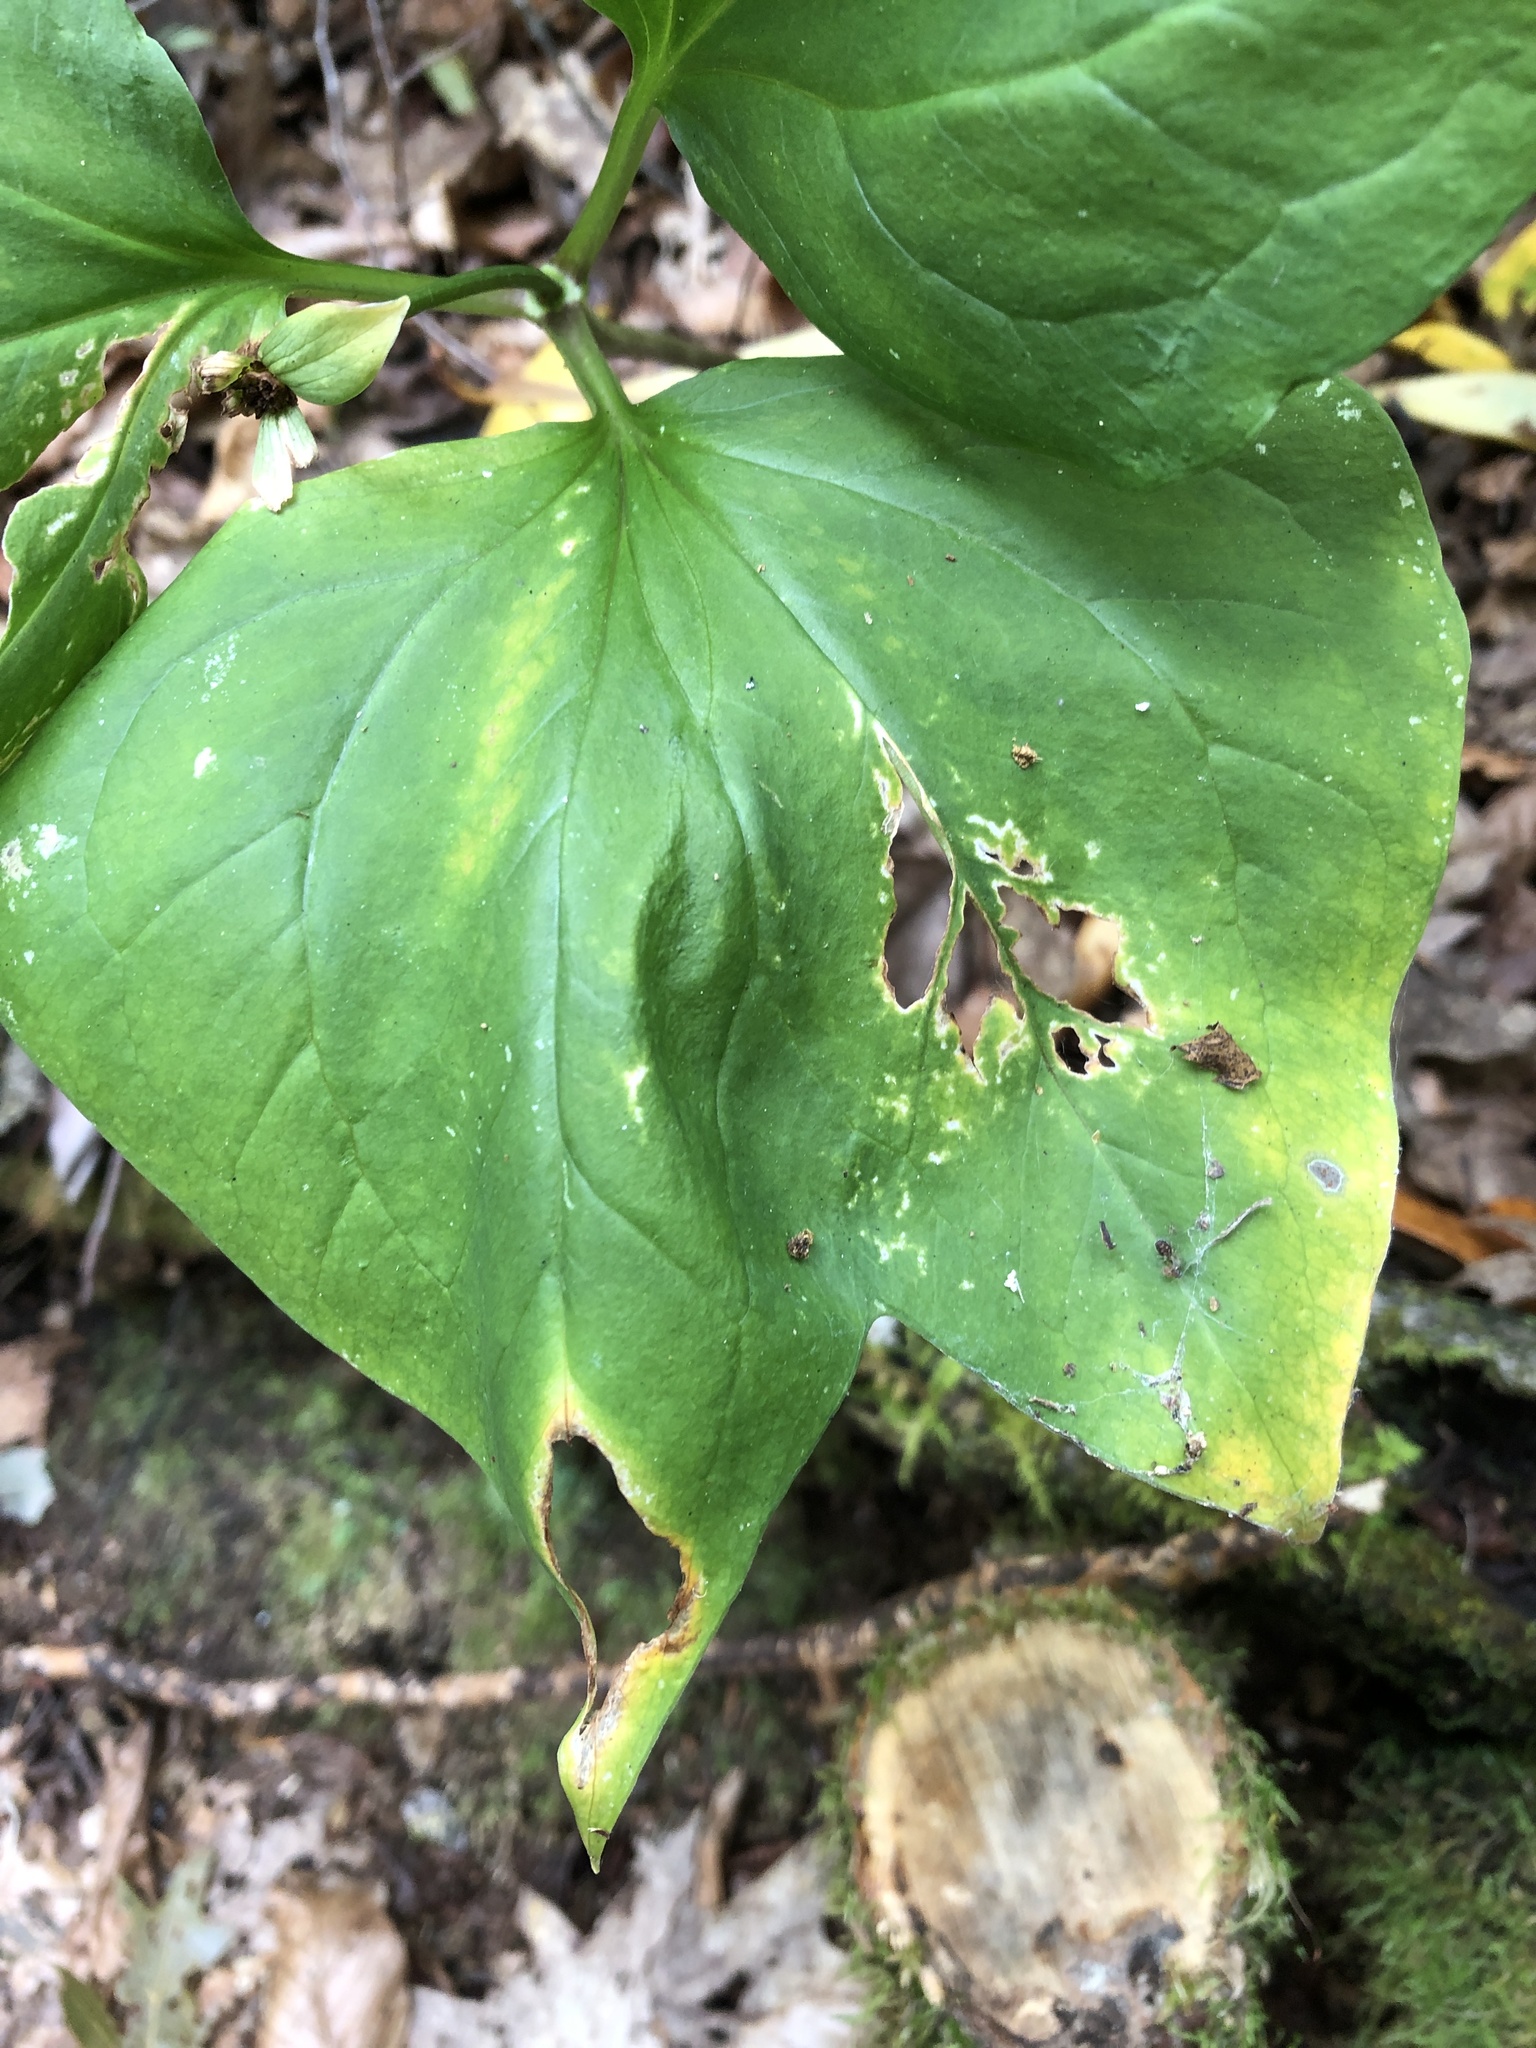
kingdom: Plantae
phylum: Tracheophyta
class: Liliopsida
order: Liliales
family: Melanthiaceae
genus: Trillium
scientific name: Trillium undulatum
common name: Paint trillium
